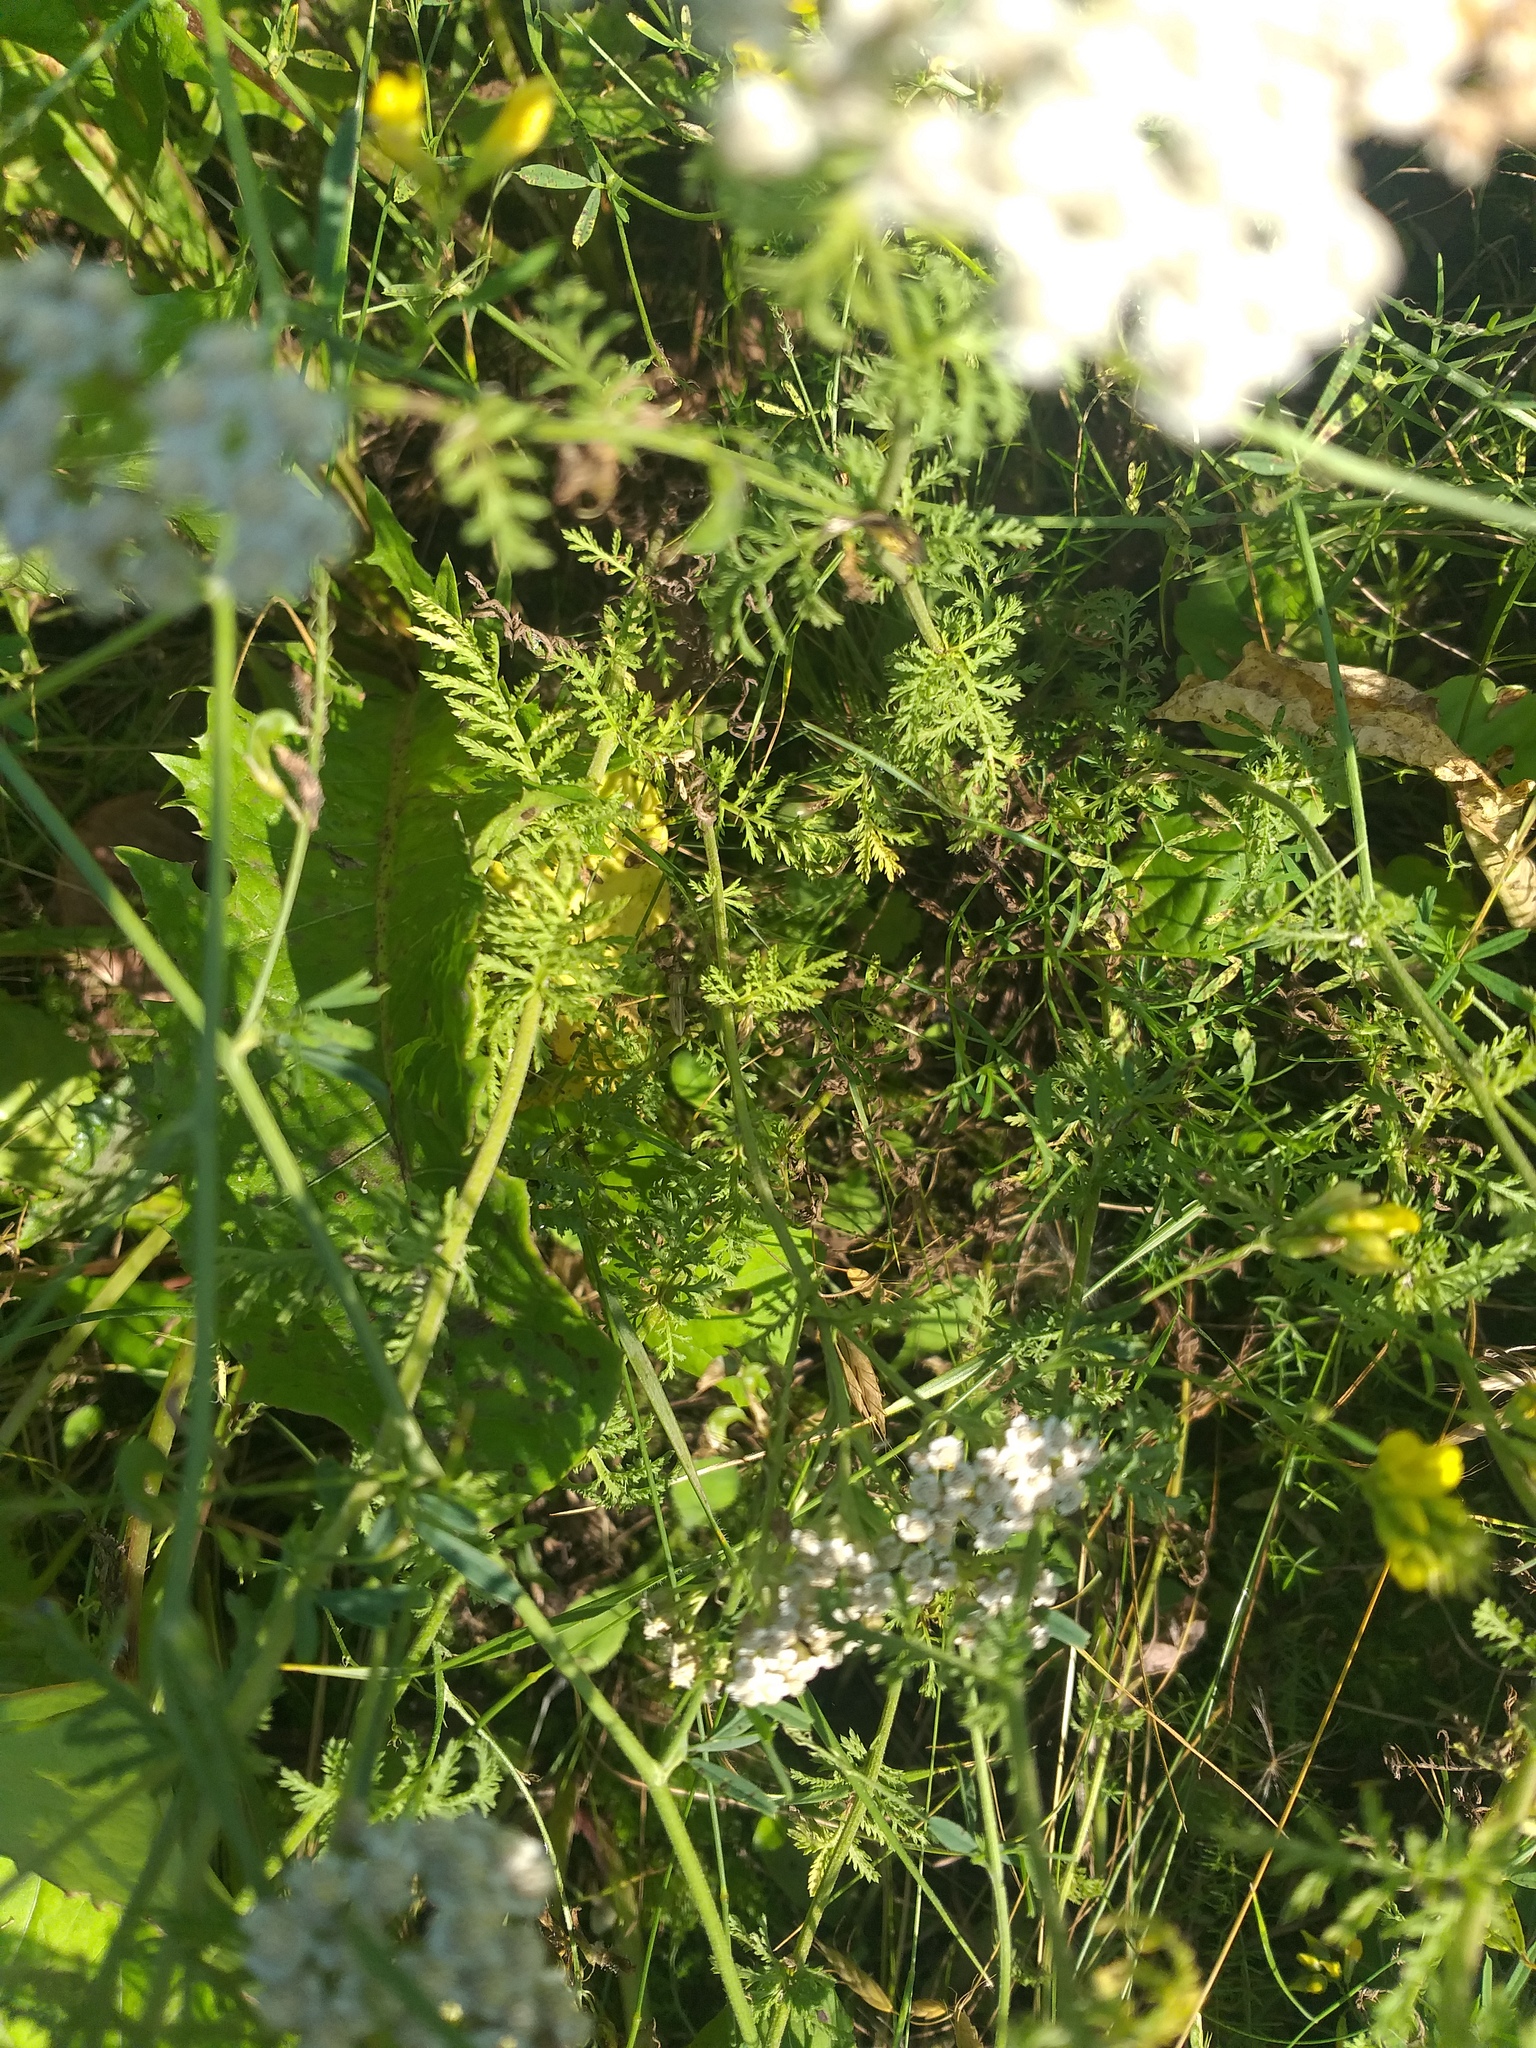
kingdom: Plantae
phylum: Tracheophyta
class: Magnoliopsida
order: Asterales
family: Asteraceae
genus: Achillea
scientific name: Achillea nobilis
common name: Noble yarrow
